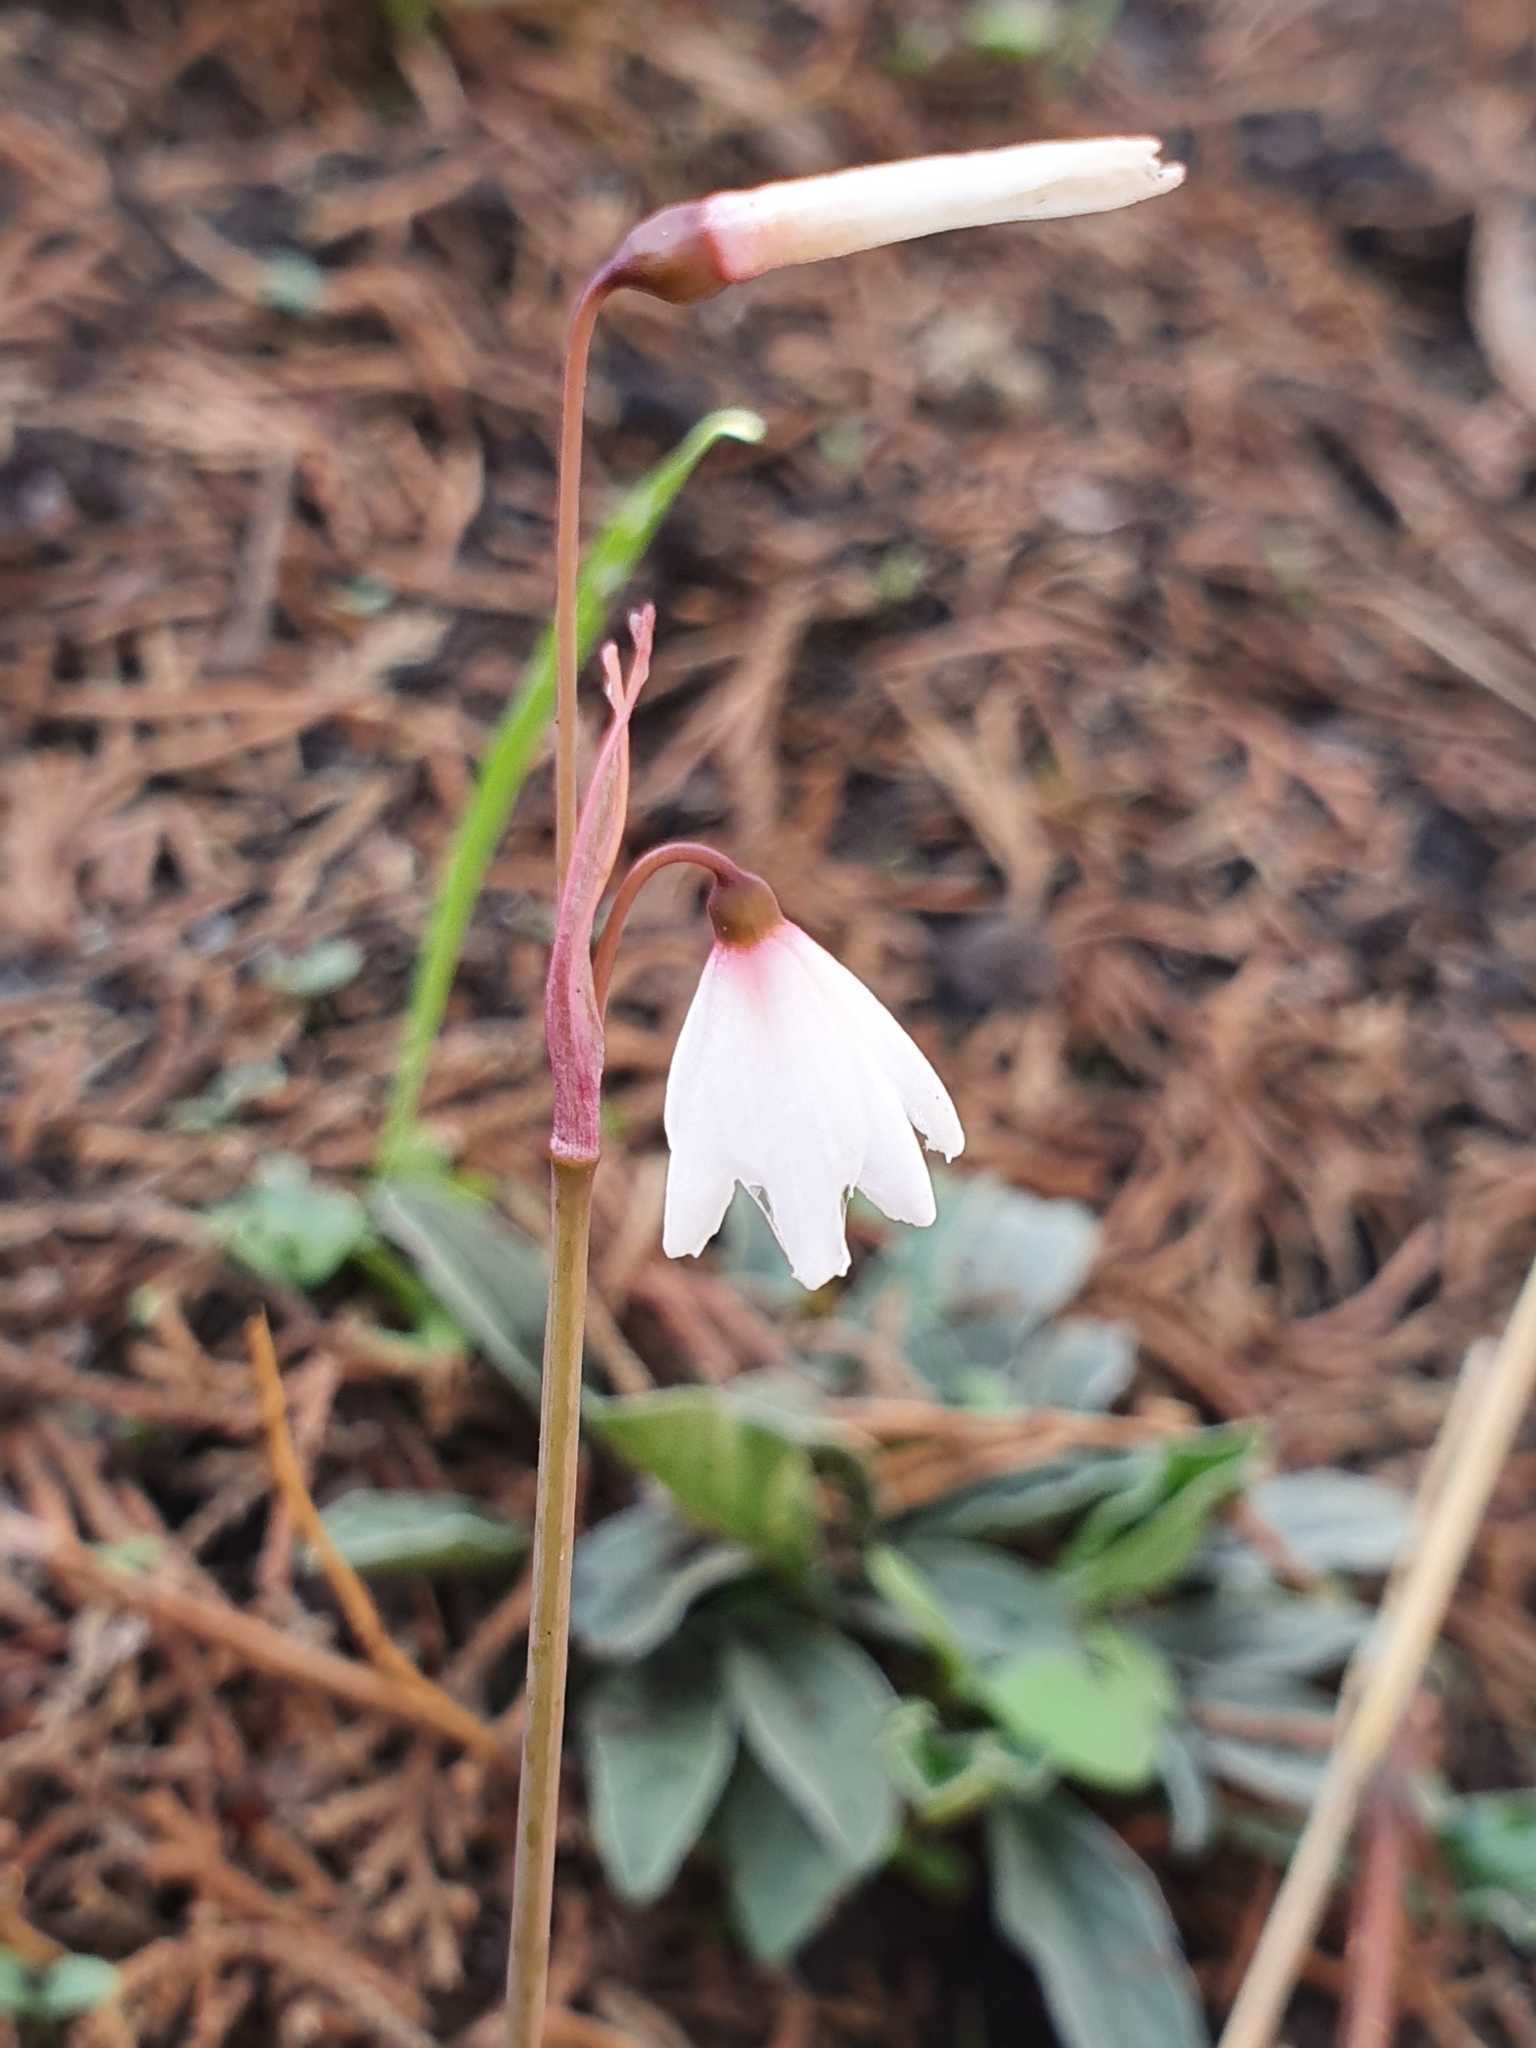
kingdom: Plantae
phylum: Tracheophyta
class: Liliopsida
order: Asparagales
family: Amaryllidaceae
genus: Acis
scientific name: Acis autumnalis
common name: Autumn snowflake
